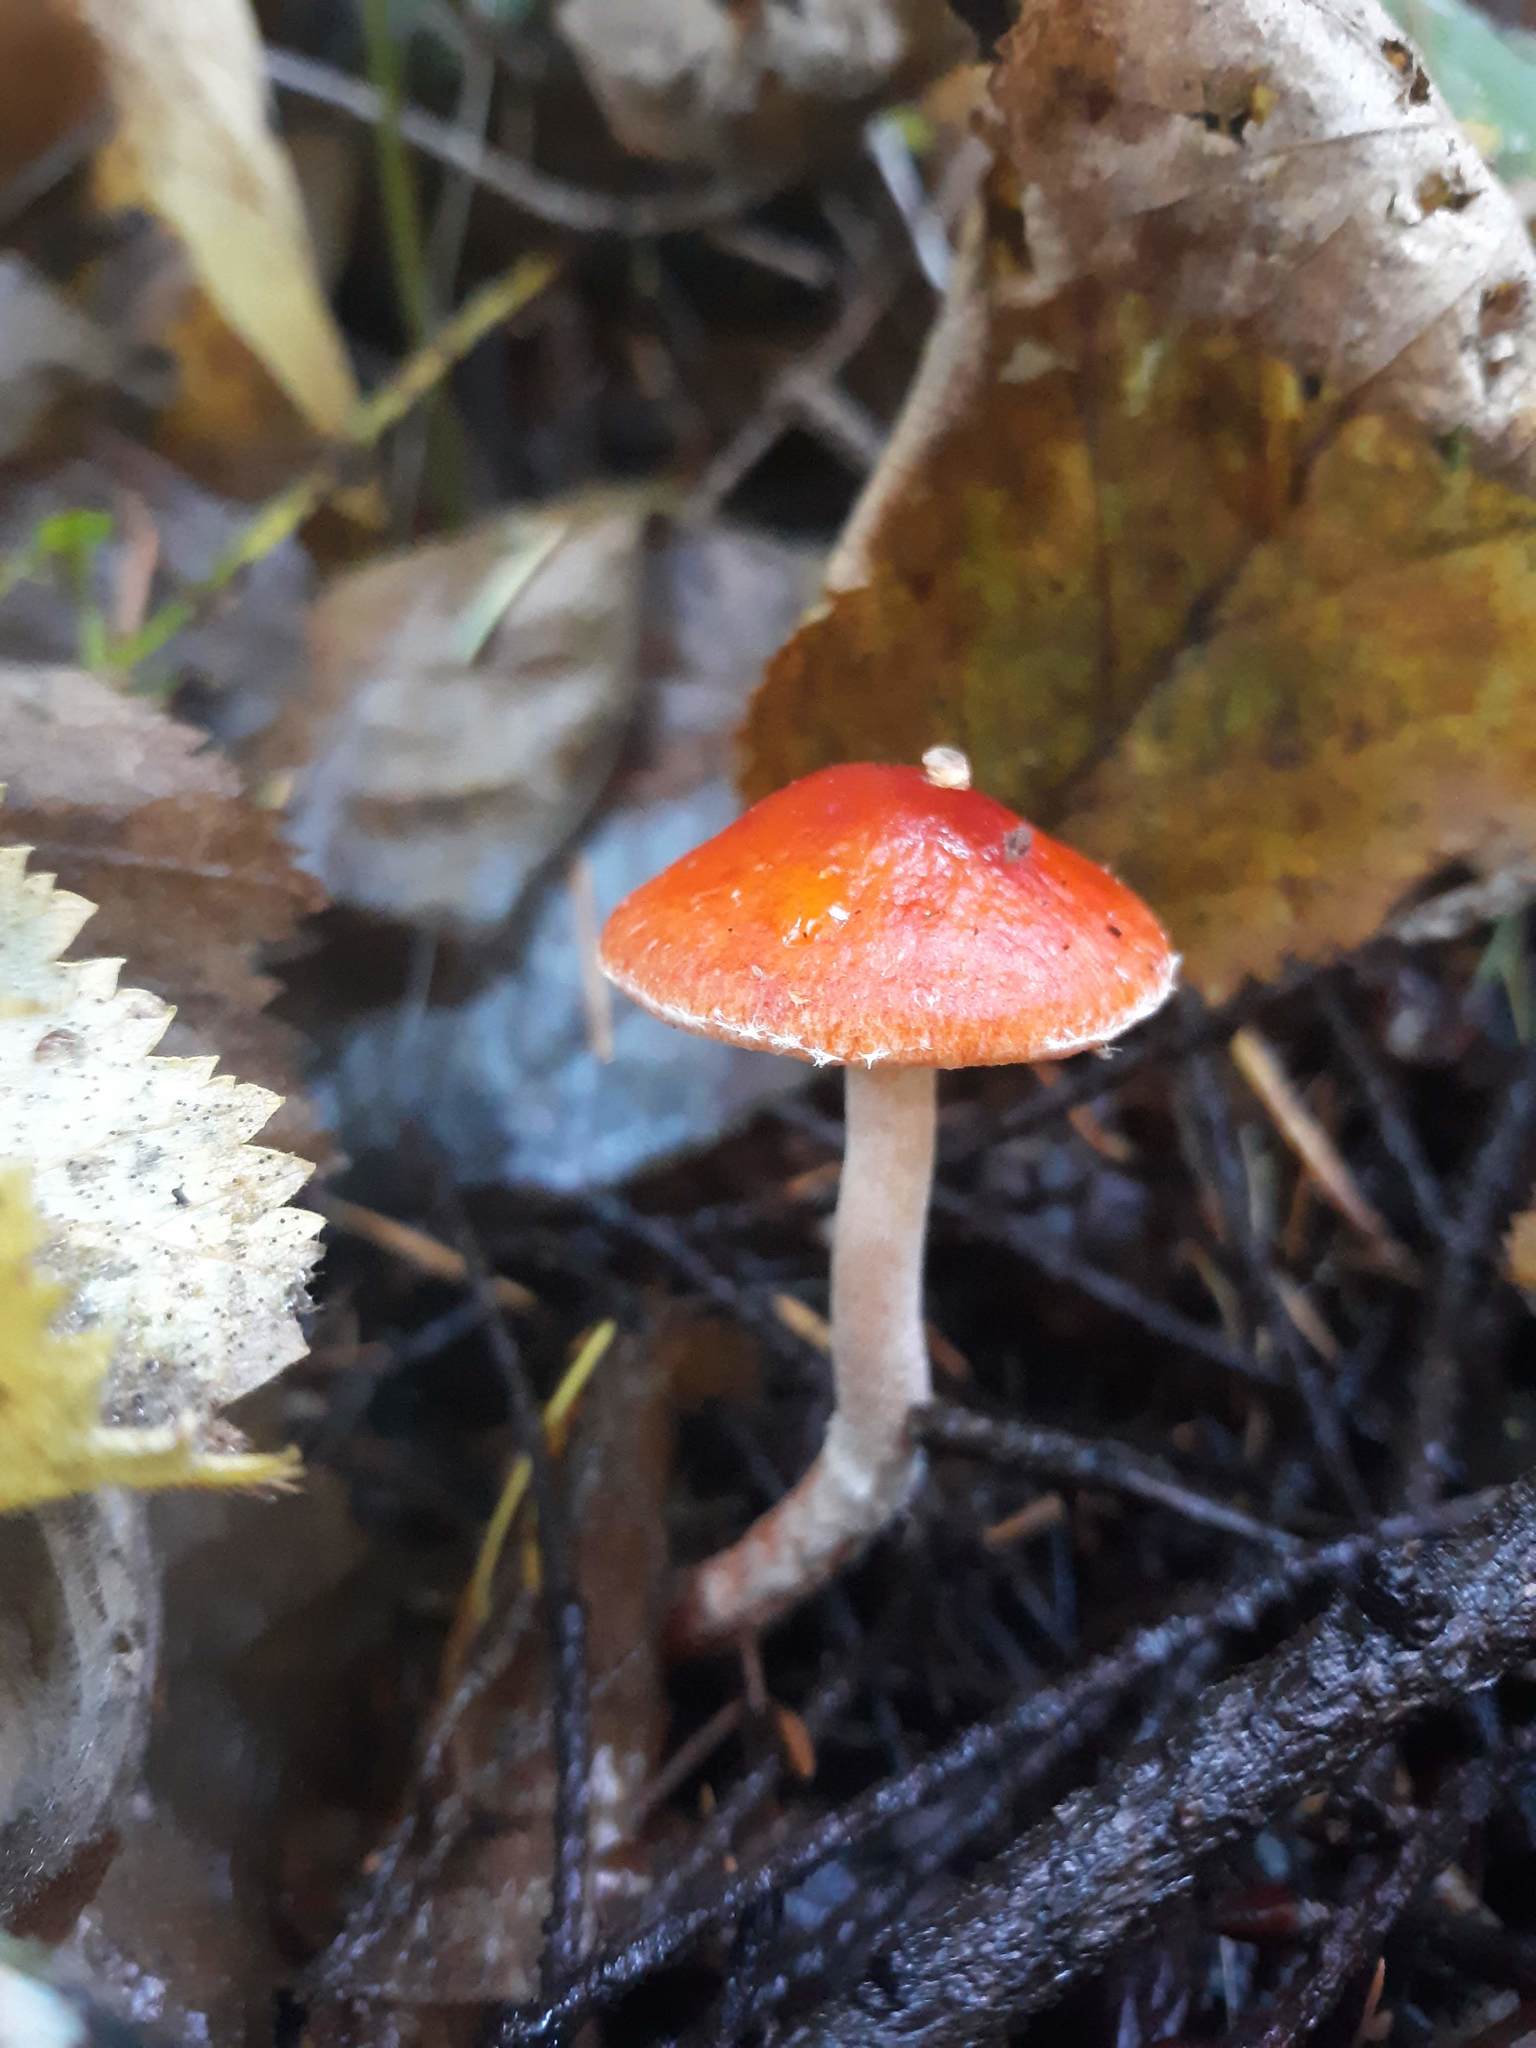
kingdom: Fungi
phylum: Basidiomycota
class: Agaricomycetes
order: Agaricales
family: Strophariaceae
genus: Leratiomyces
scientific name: Leratiomyces ceres
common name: Redlead roundhead
